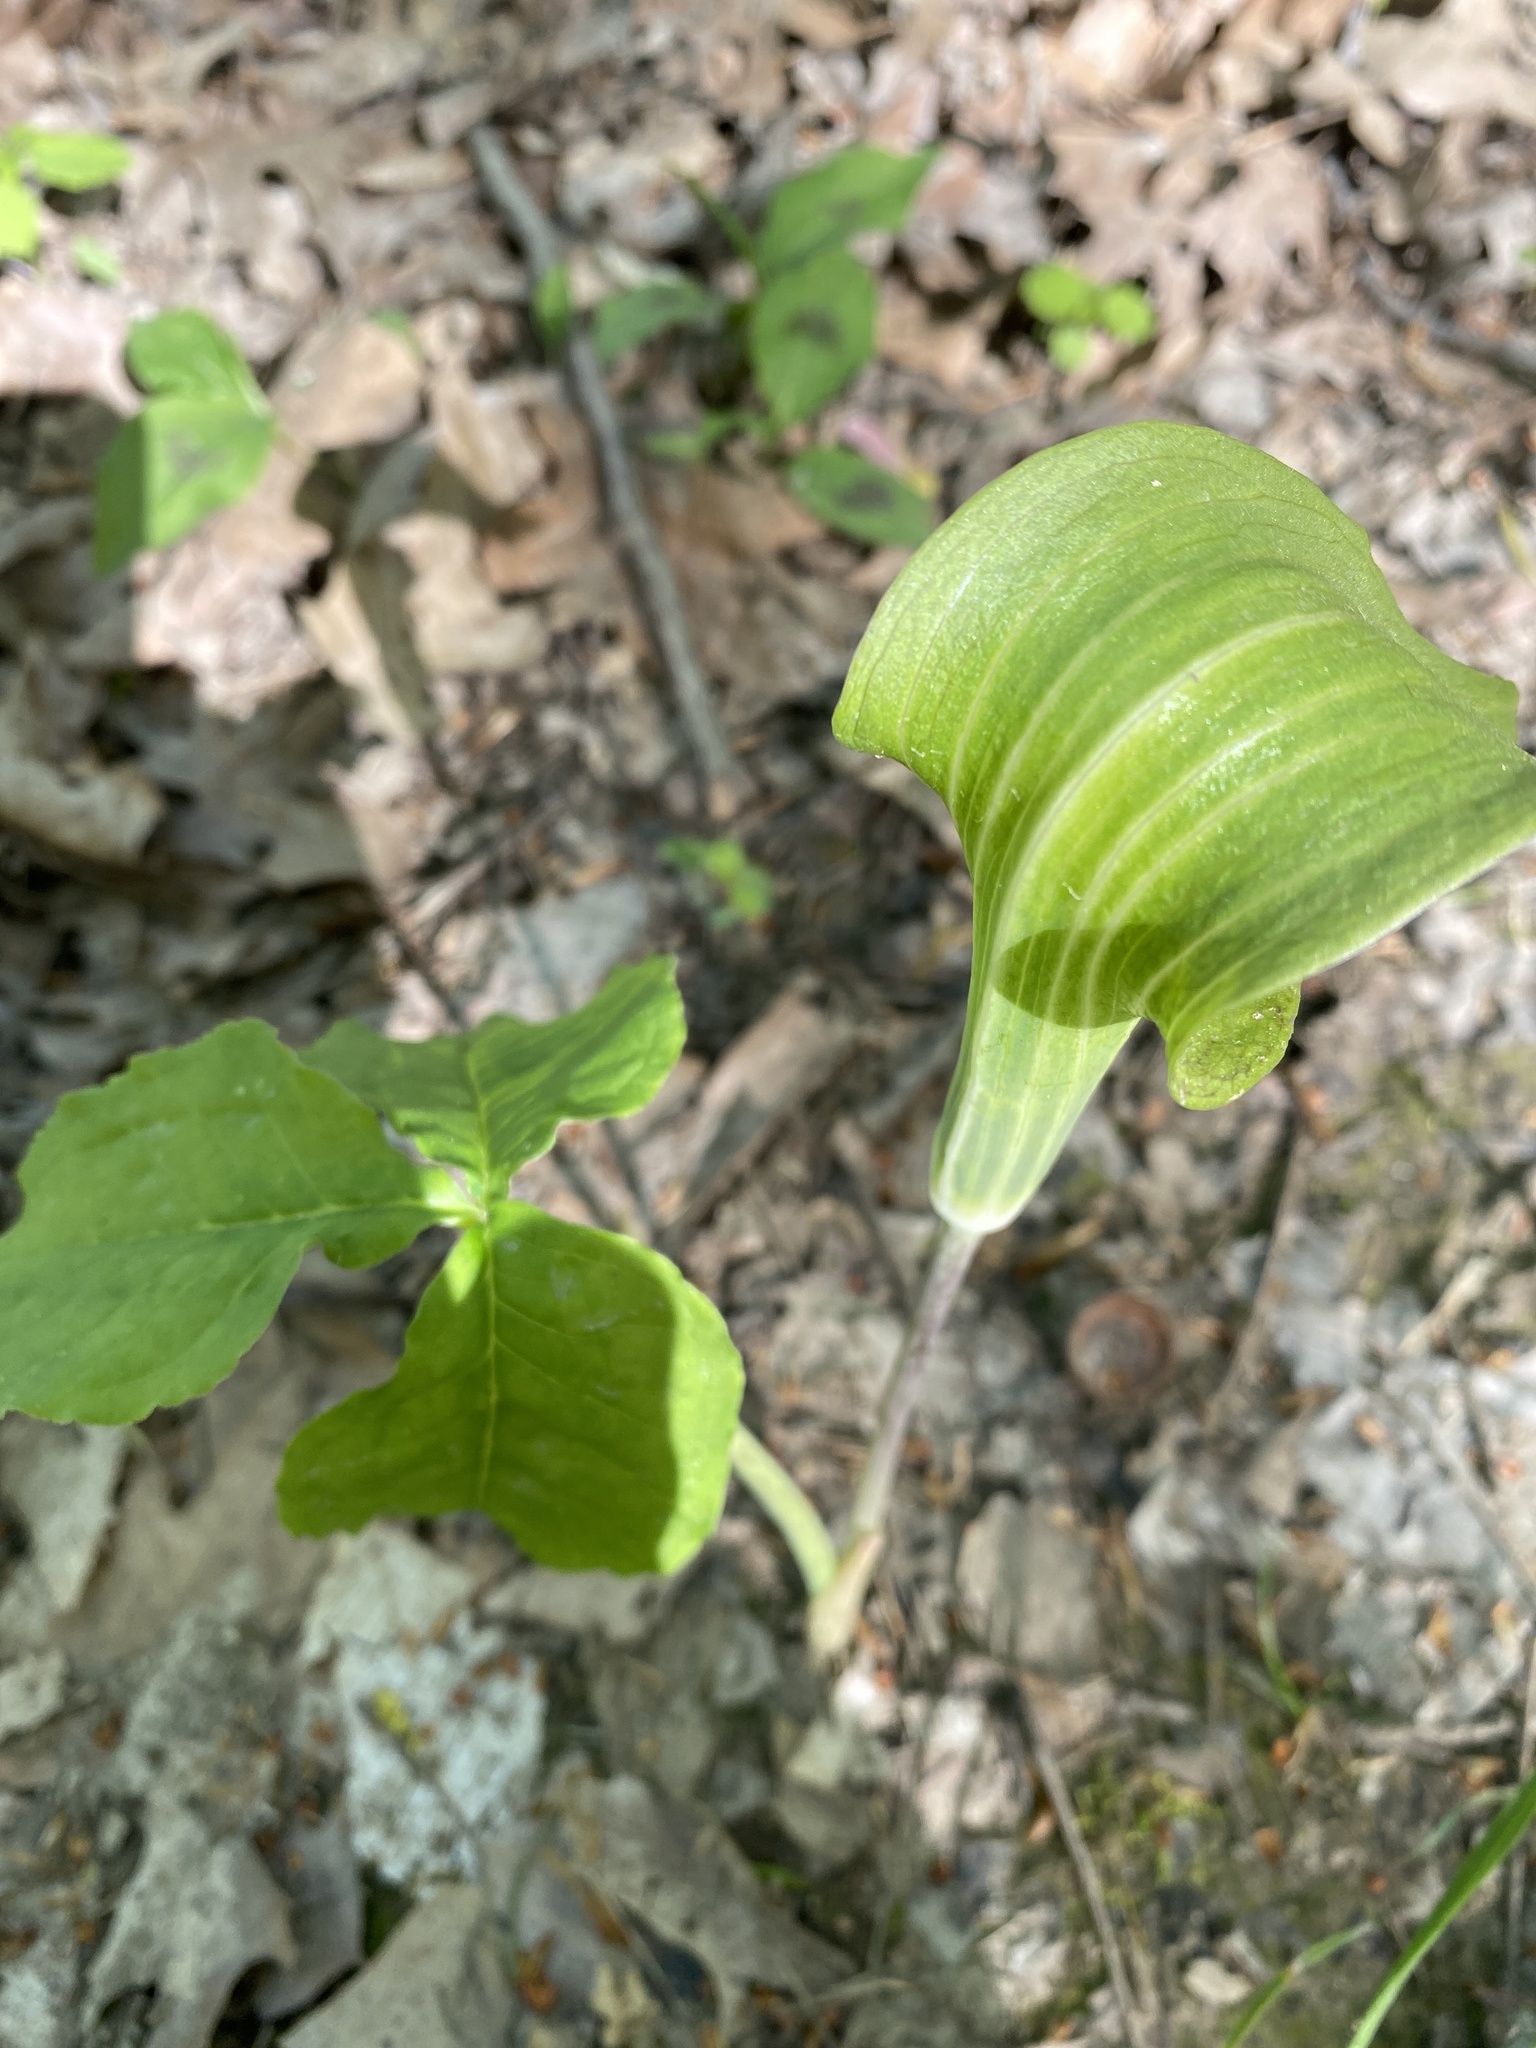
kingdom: Plantae
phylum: Tracheophyta
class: Liliopsida
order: Alismatales
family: Araceae
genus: Arisaema
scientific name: Arisaema triphyllum
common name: Jack-in-the-pulpit
